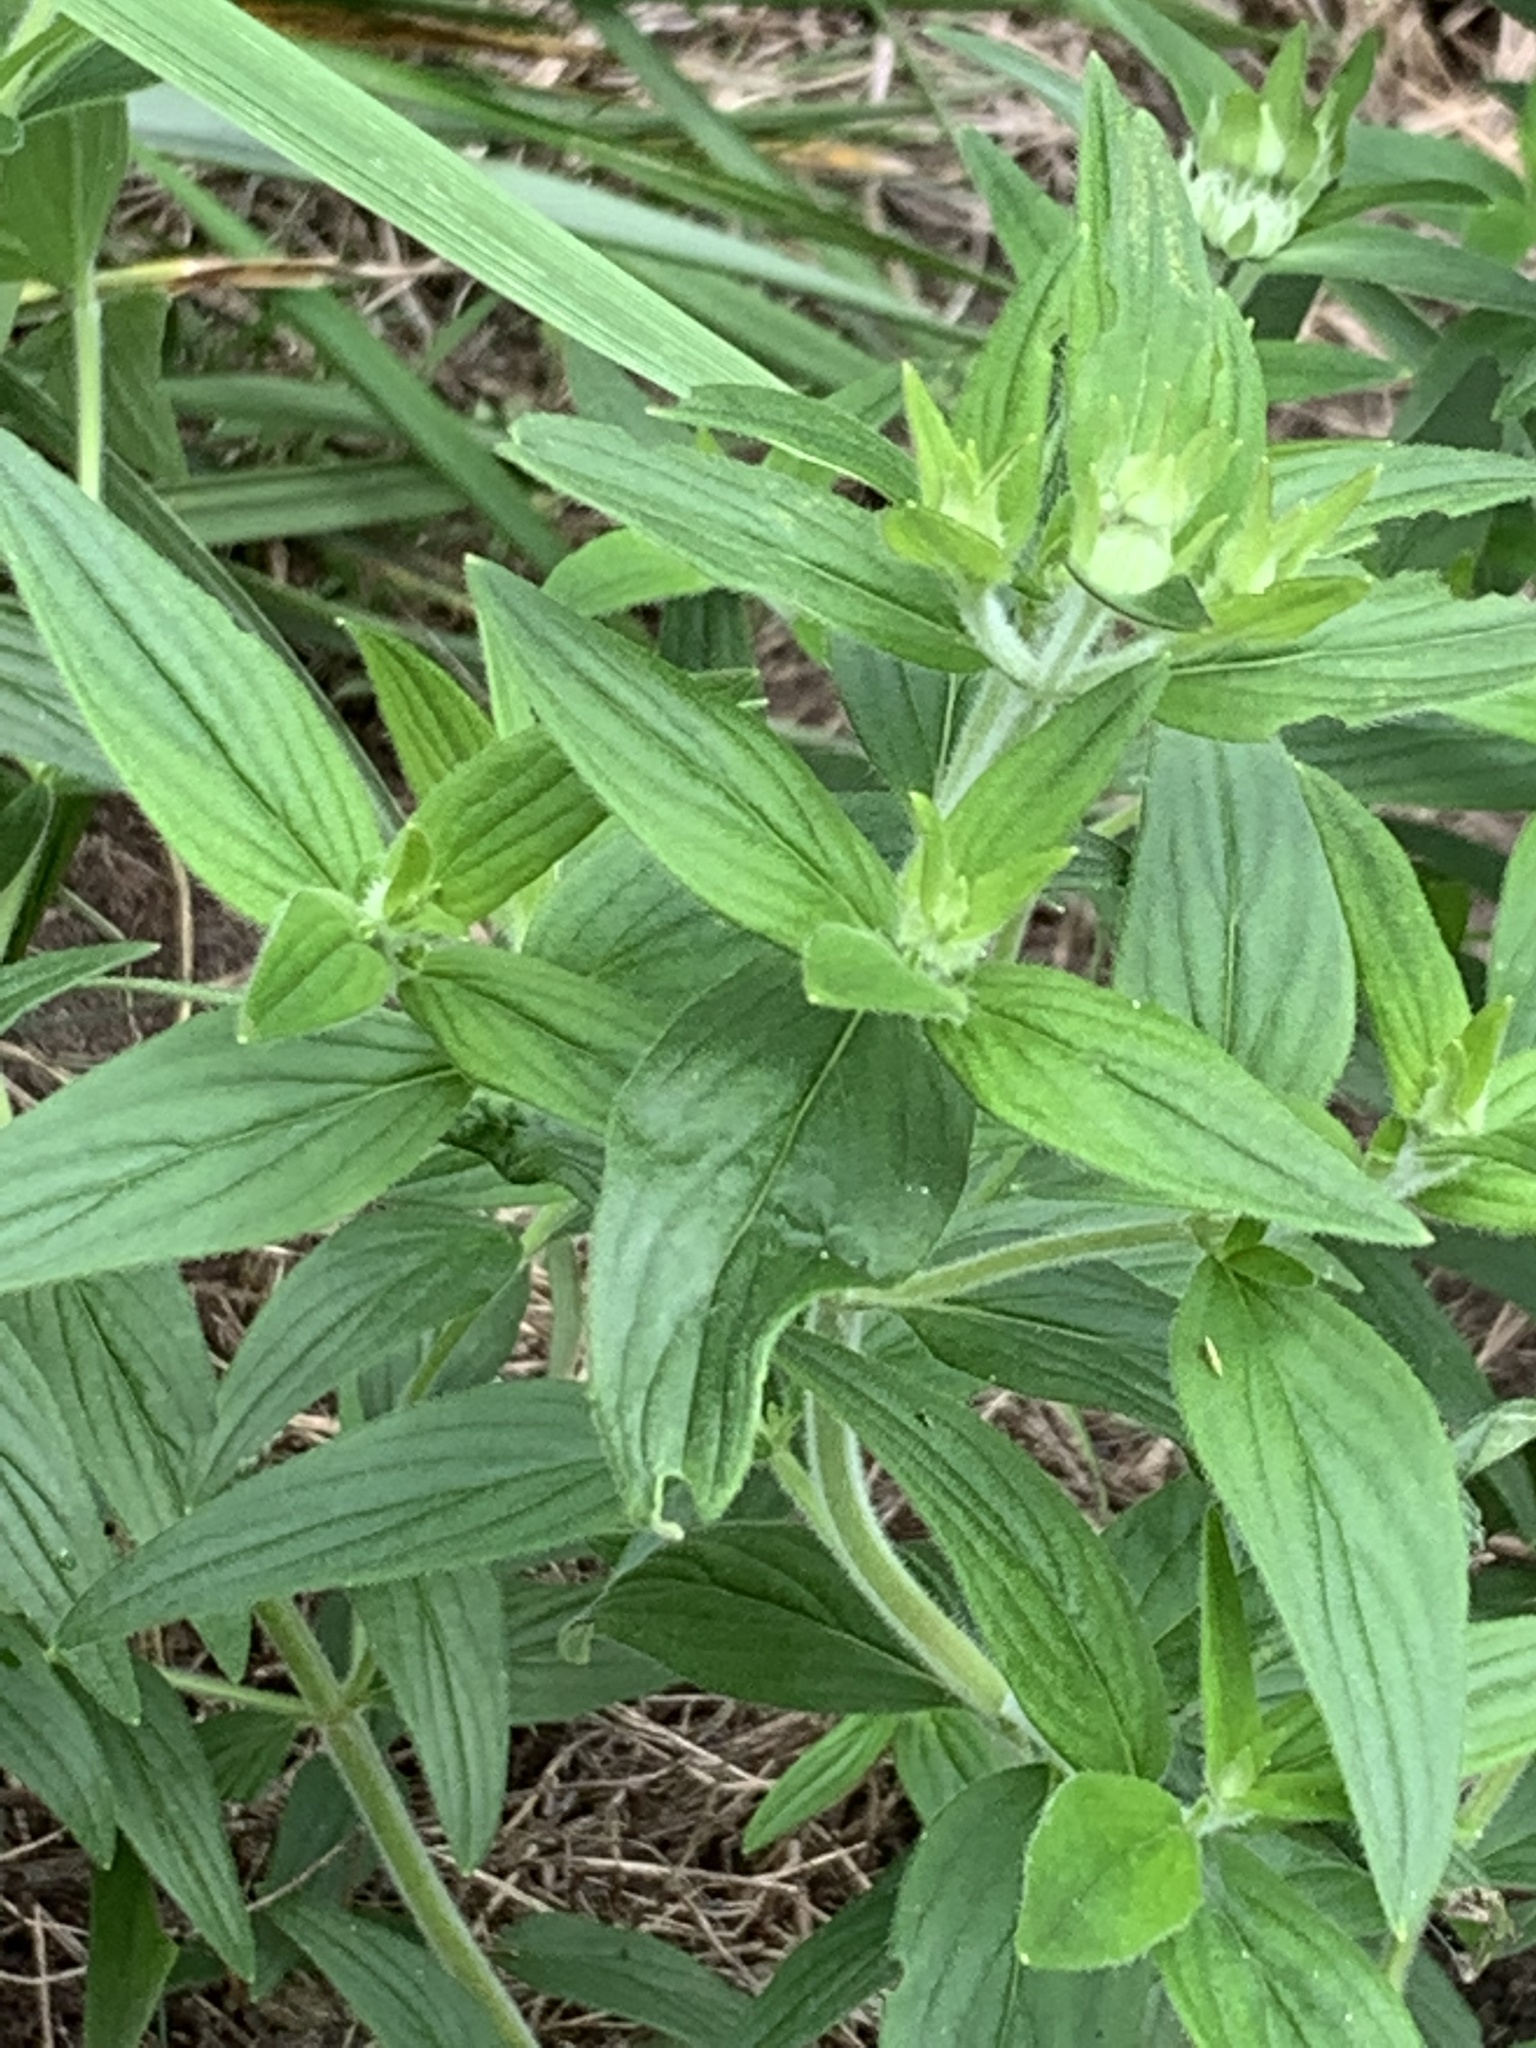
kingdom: Plantae
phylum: Tracheophyta
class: Magnoliopsida
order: Lamiales
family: Lamiaceae
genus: Pycnanthemum
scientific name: Pycnanthemum verticillatum
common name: Whorled mountain-mint
